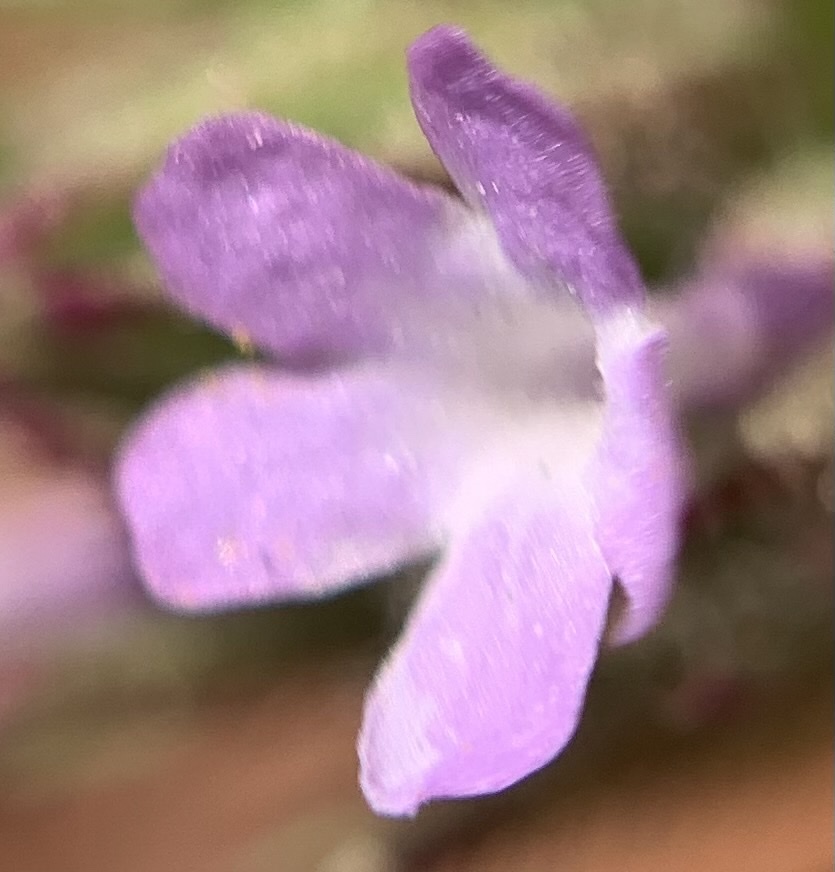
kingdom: Plantae
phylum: Tracheophyta
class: Magnoliopsida
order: Lamiales
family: Verbenaceae
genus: Verbena
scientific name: Verbena bracteata
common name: Bracted vervain
